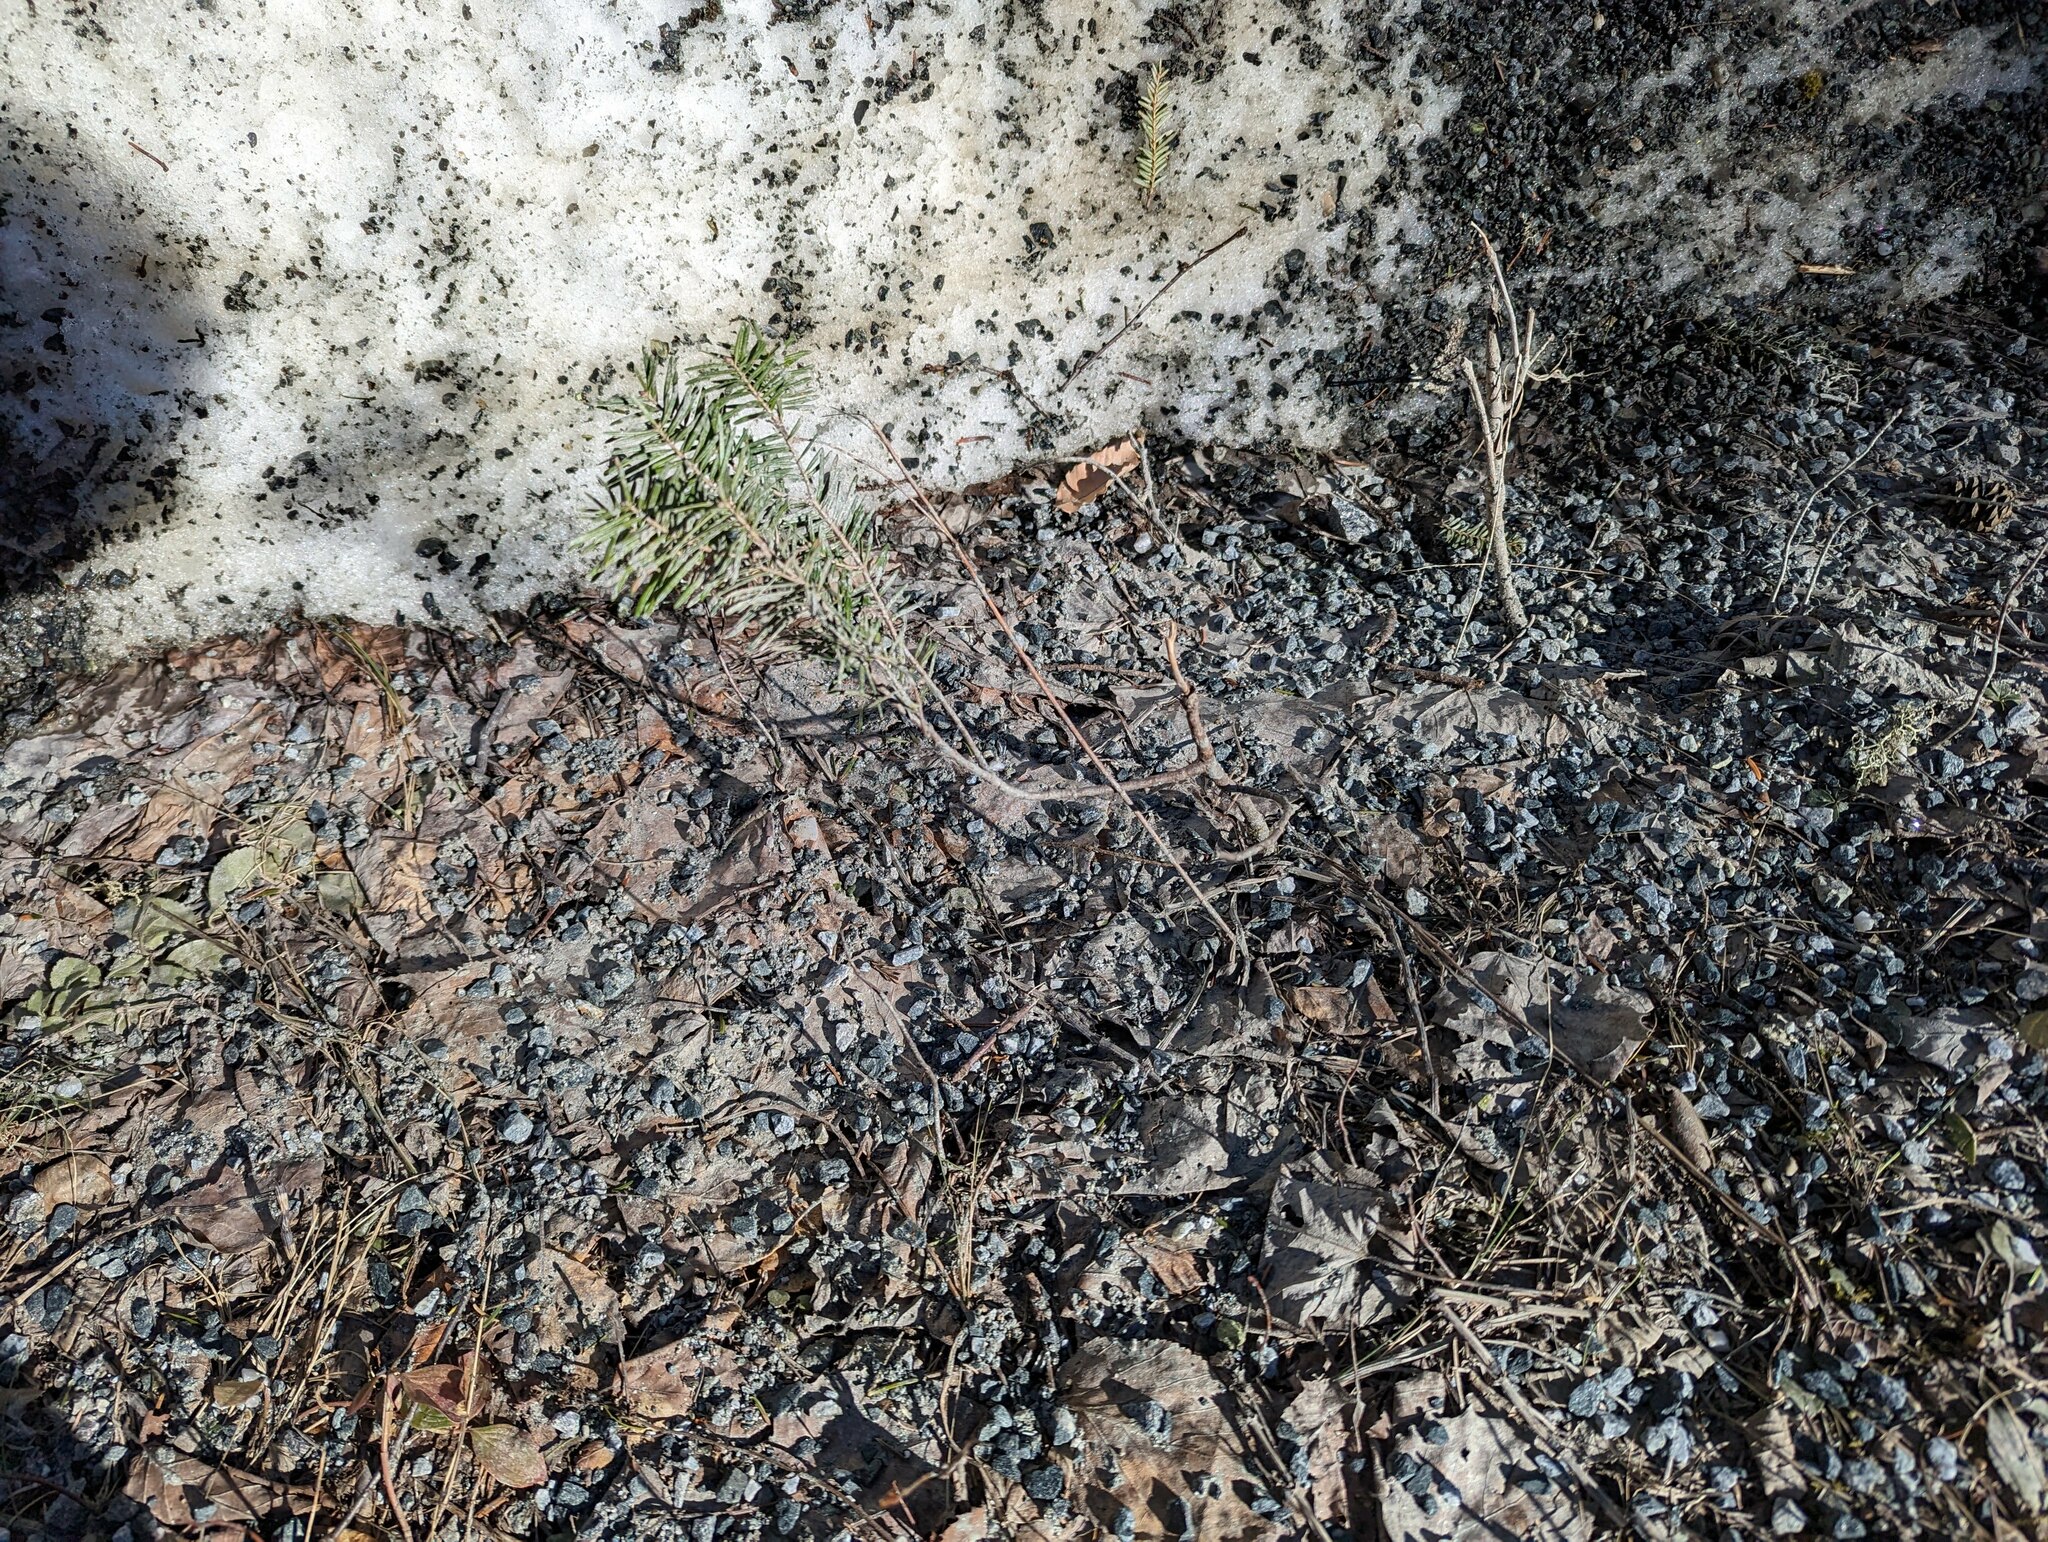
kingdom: Plantae
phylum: Tracheophyta
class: Pinopsida
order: Pinales
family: Pinaceae
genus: Abies
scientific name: Abies balsamea
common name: Balsam fir
